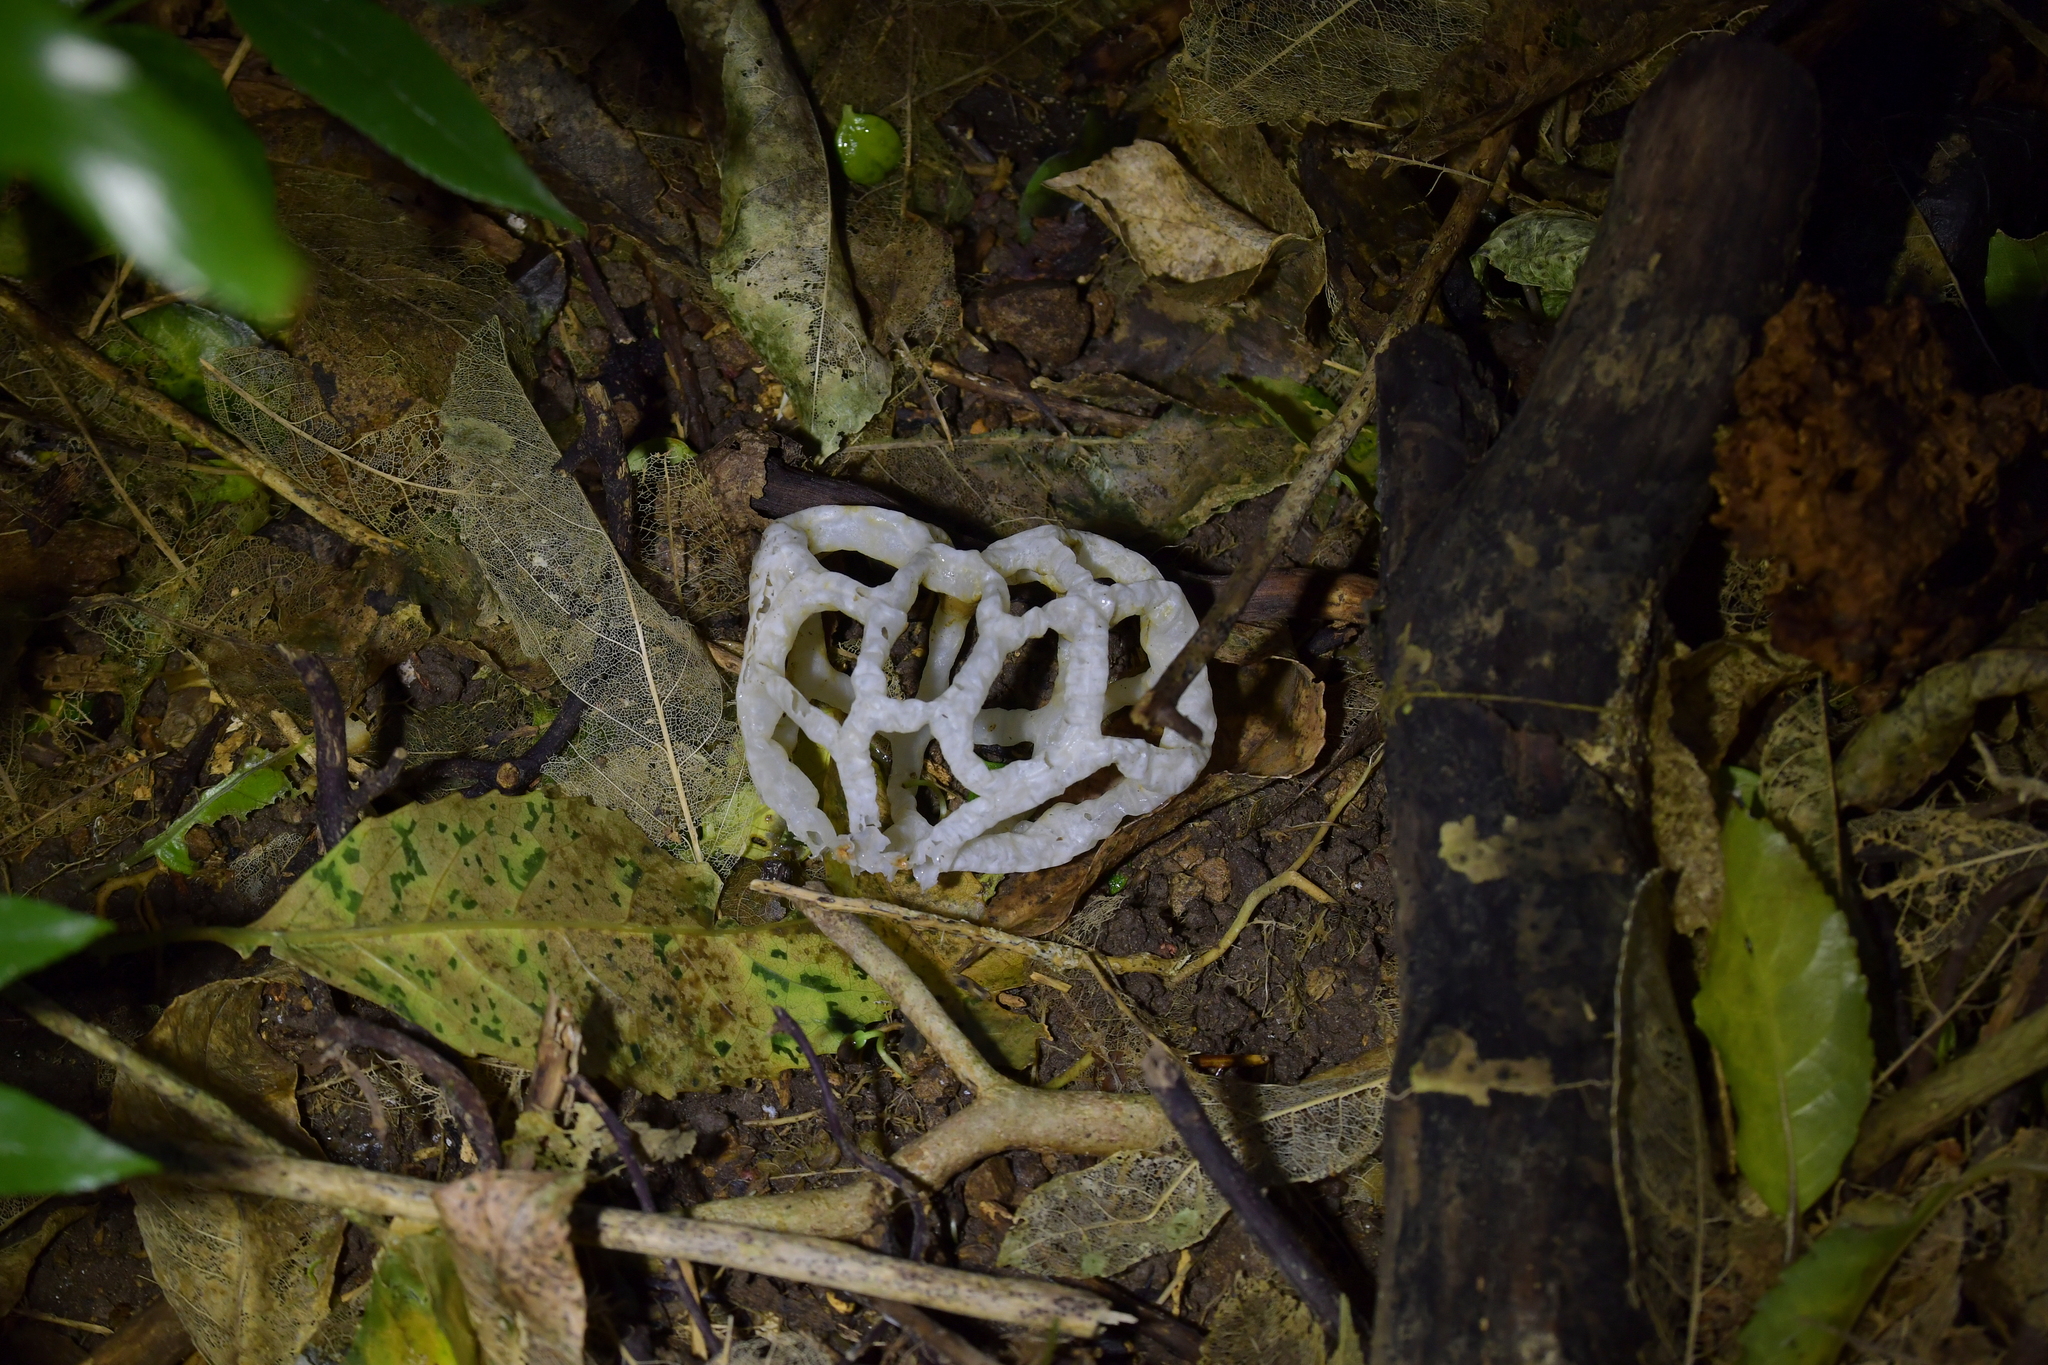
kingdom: Fungi
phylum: Basidiomycota
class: Agaricomycetes
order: Phallales
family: Phallaceae
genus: Ileodictyon
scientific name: Ileodictyon cibarium
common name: Basket fungus
